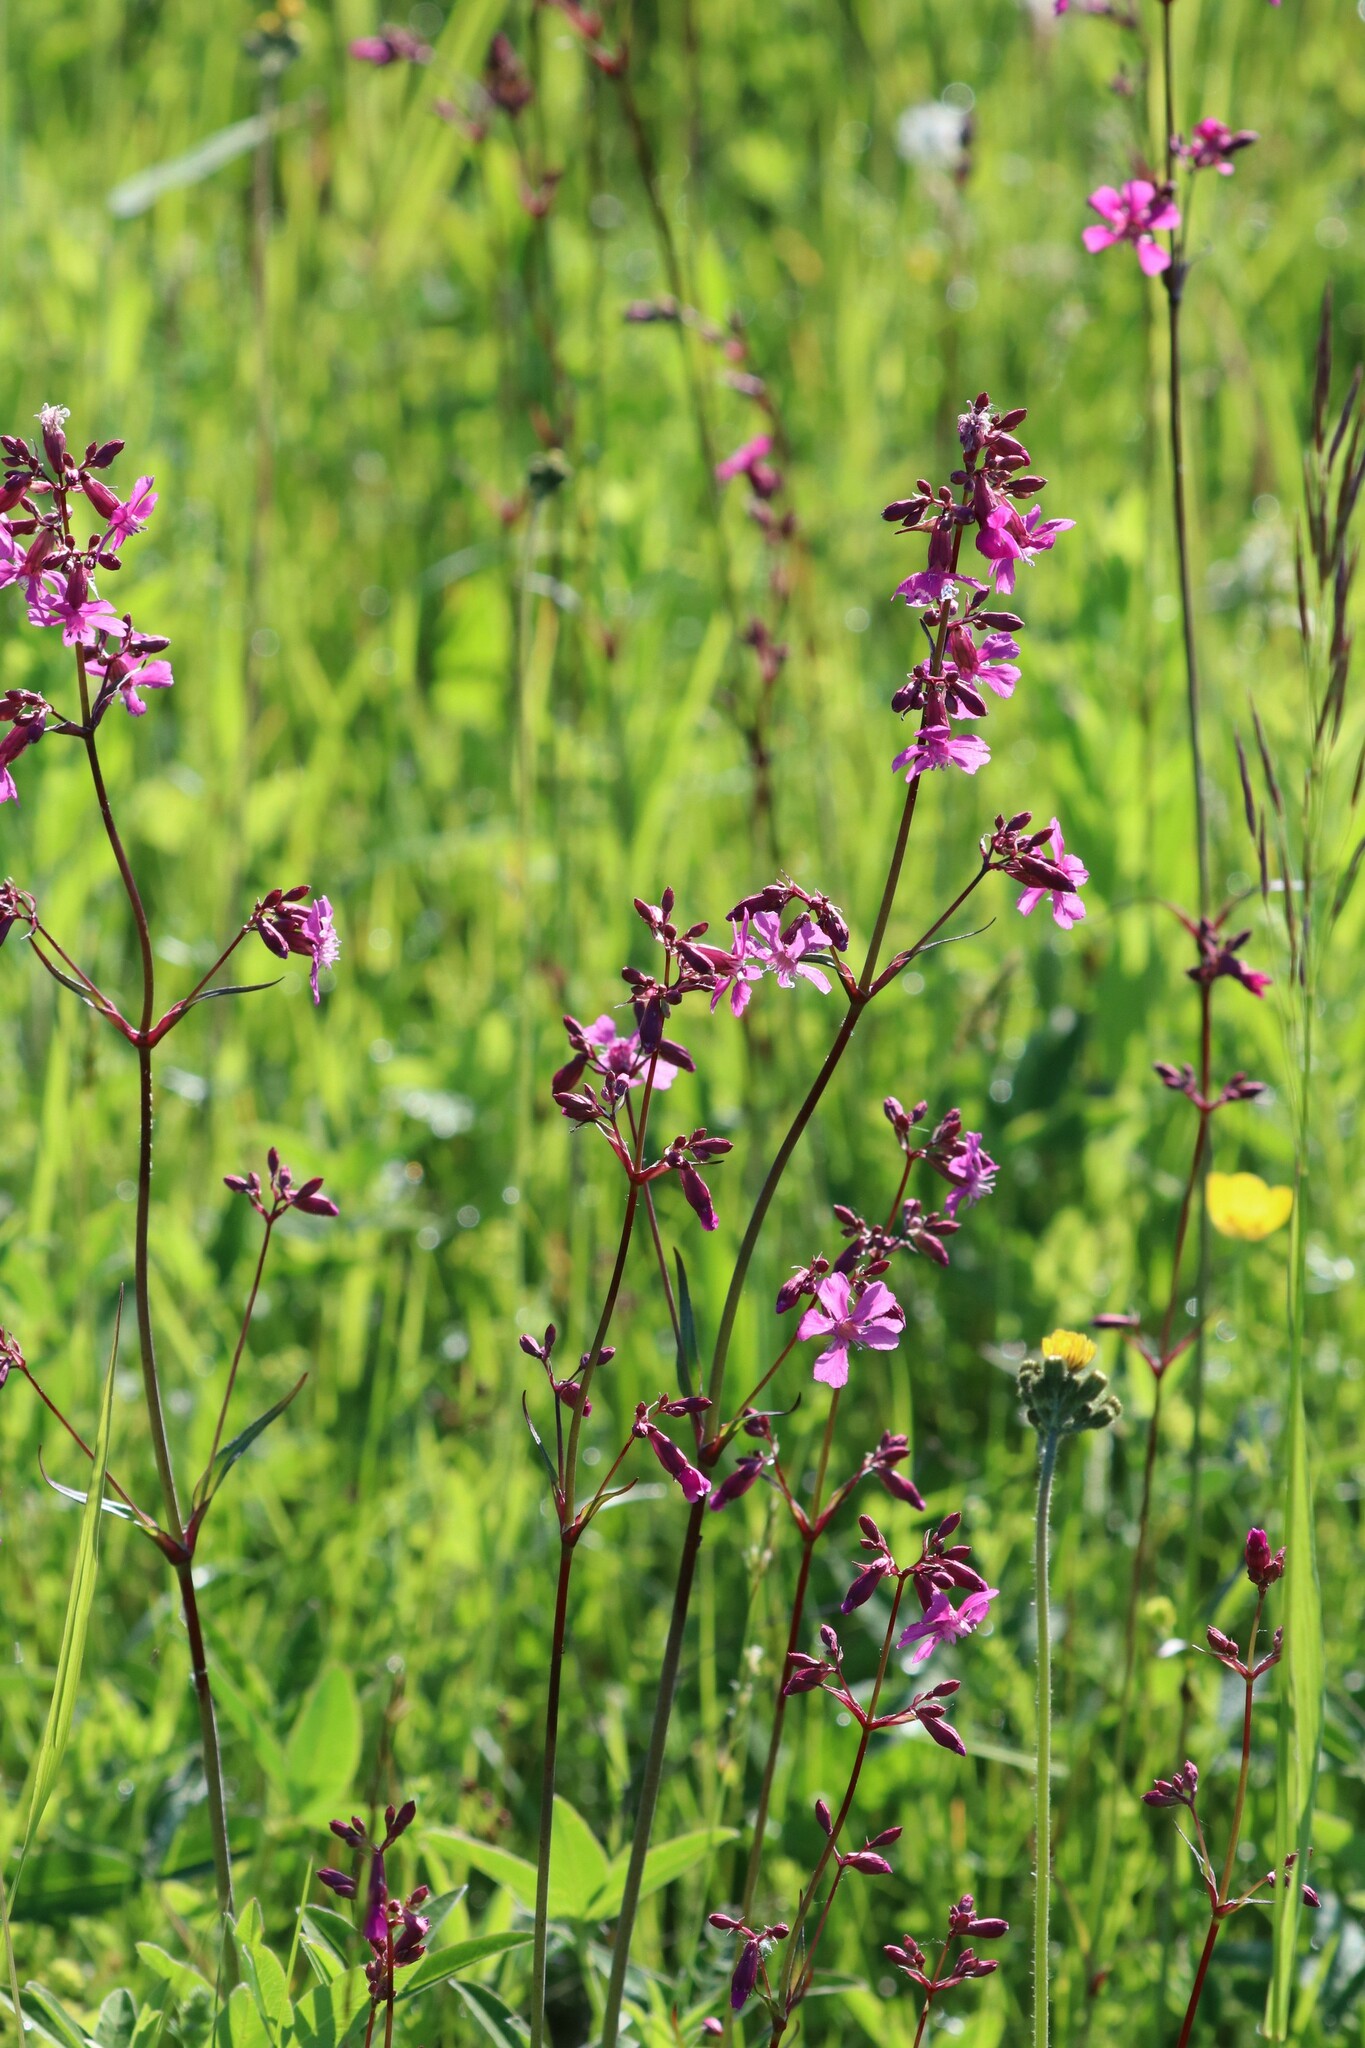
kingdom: Plantae
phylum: Tracheophyta
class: Magnoliopsida
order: Caryophyllales
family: Caryophyllaceae
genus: Viscaria
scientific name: Viscaria vulgaris
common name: Clammy campion
